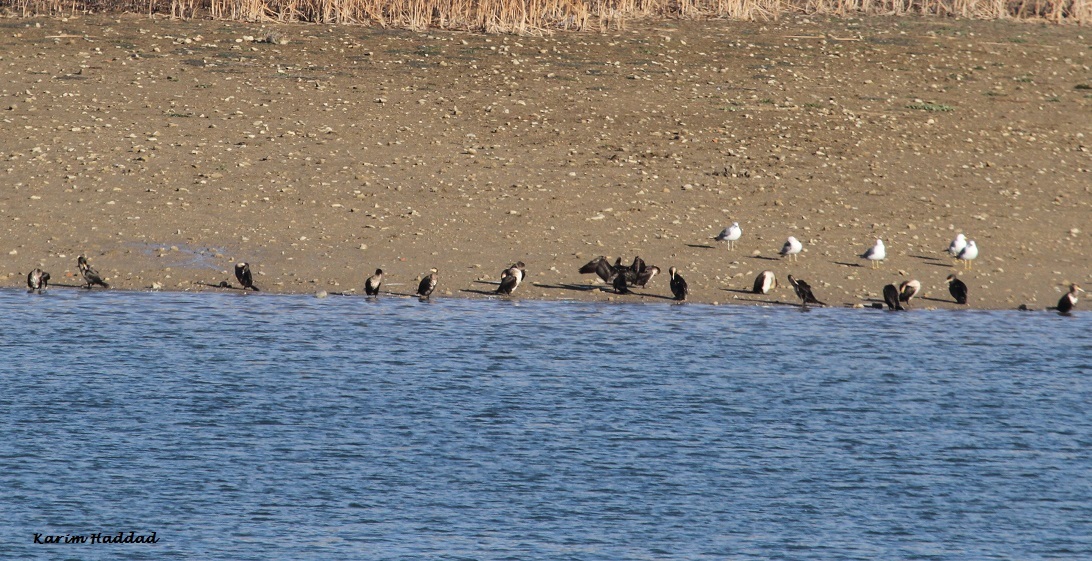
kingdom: Animalia
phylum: Chordata
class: Aves
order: Suliformes
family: Phalacrocoracidae
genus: Phalacrocorax
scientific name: Phalacrocorax carbo
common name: Great cormorant
